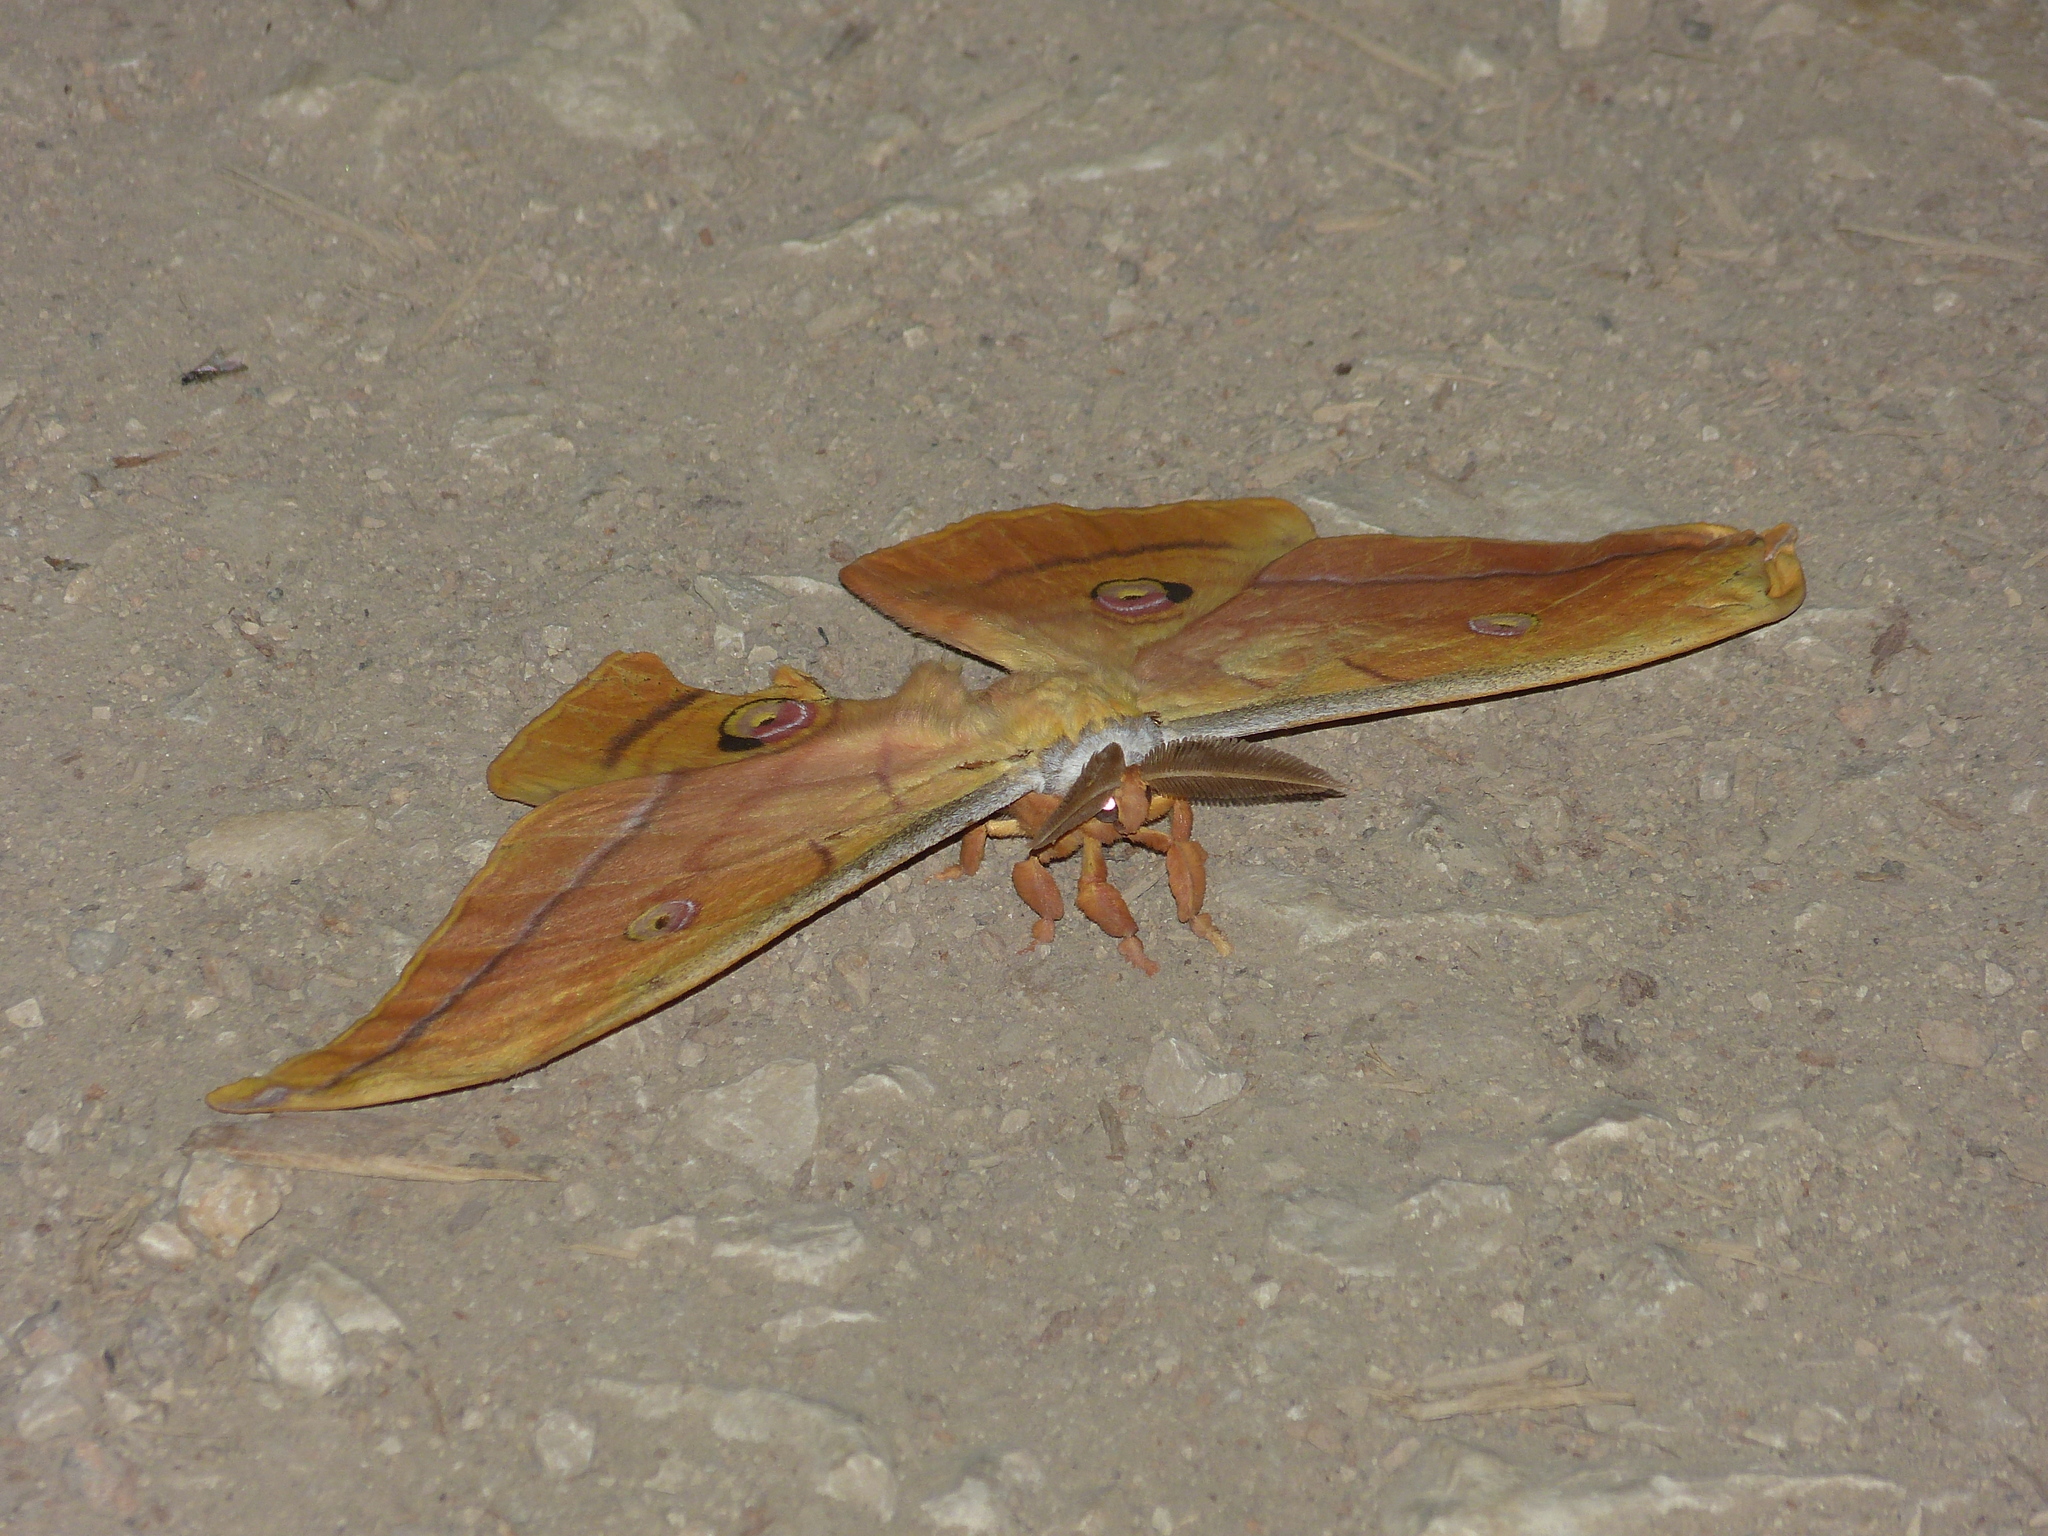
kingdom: Animalia
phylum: Arthropoda
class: Insecta
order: Lepidoptera
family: Saturniidae
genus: Antheraea
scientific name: Antheraea yamamai
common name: Japanese oak silk moth
